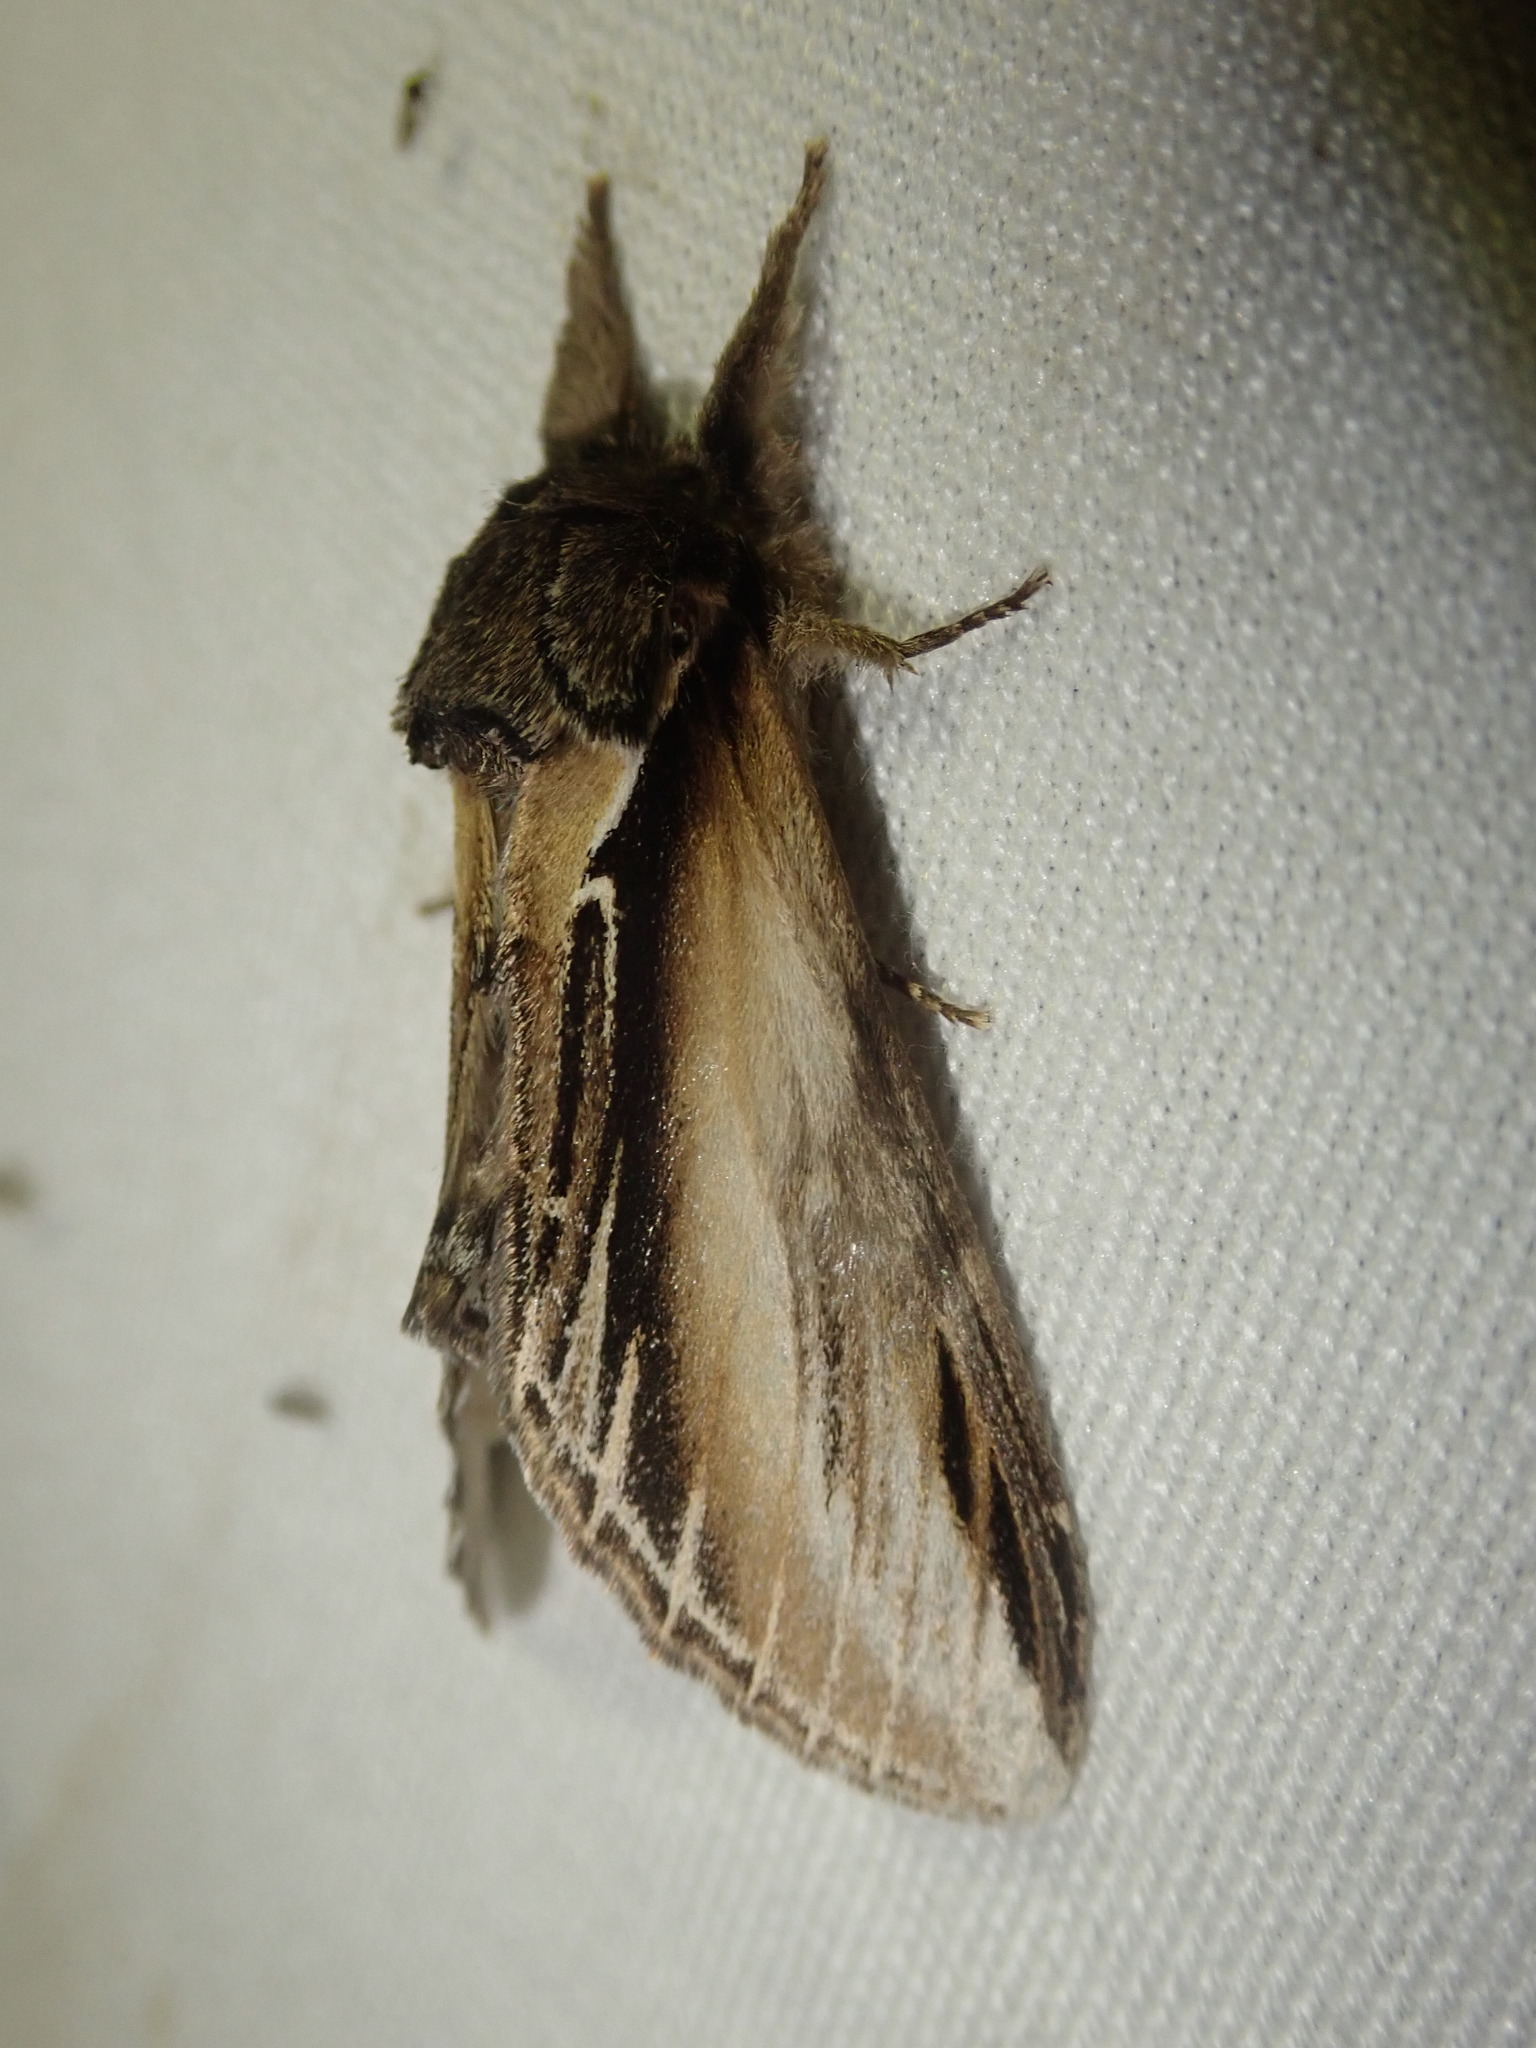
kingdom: Animalia
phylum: Arthropoda
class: Insecta
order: Lepidoptera
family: Notodontidae
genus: Pheosia
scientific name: Pheosia tremula
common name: Swallow prominent
